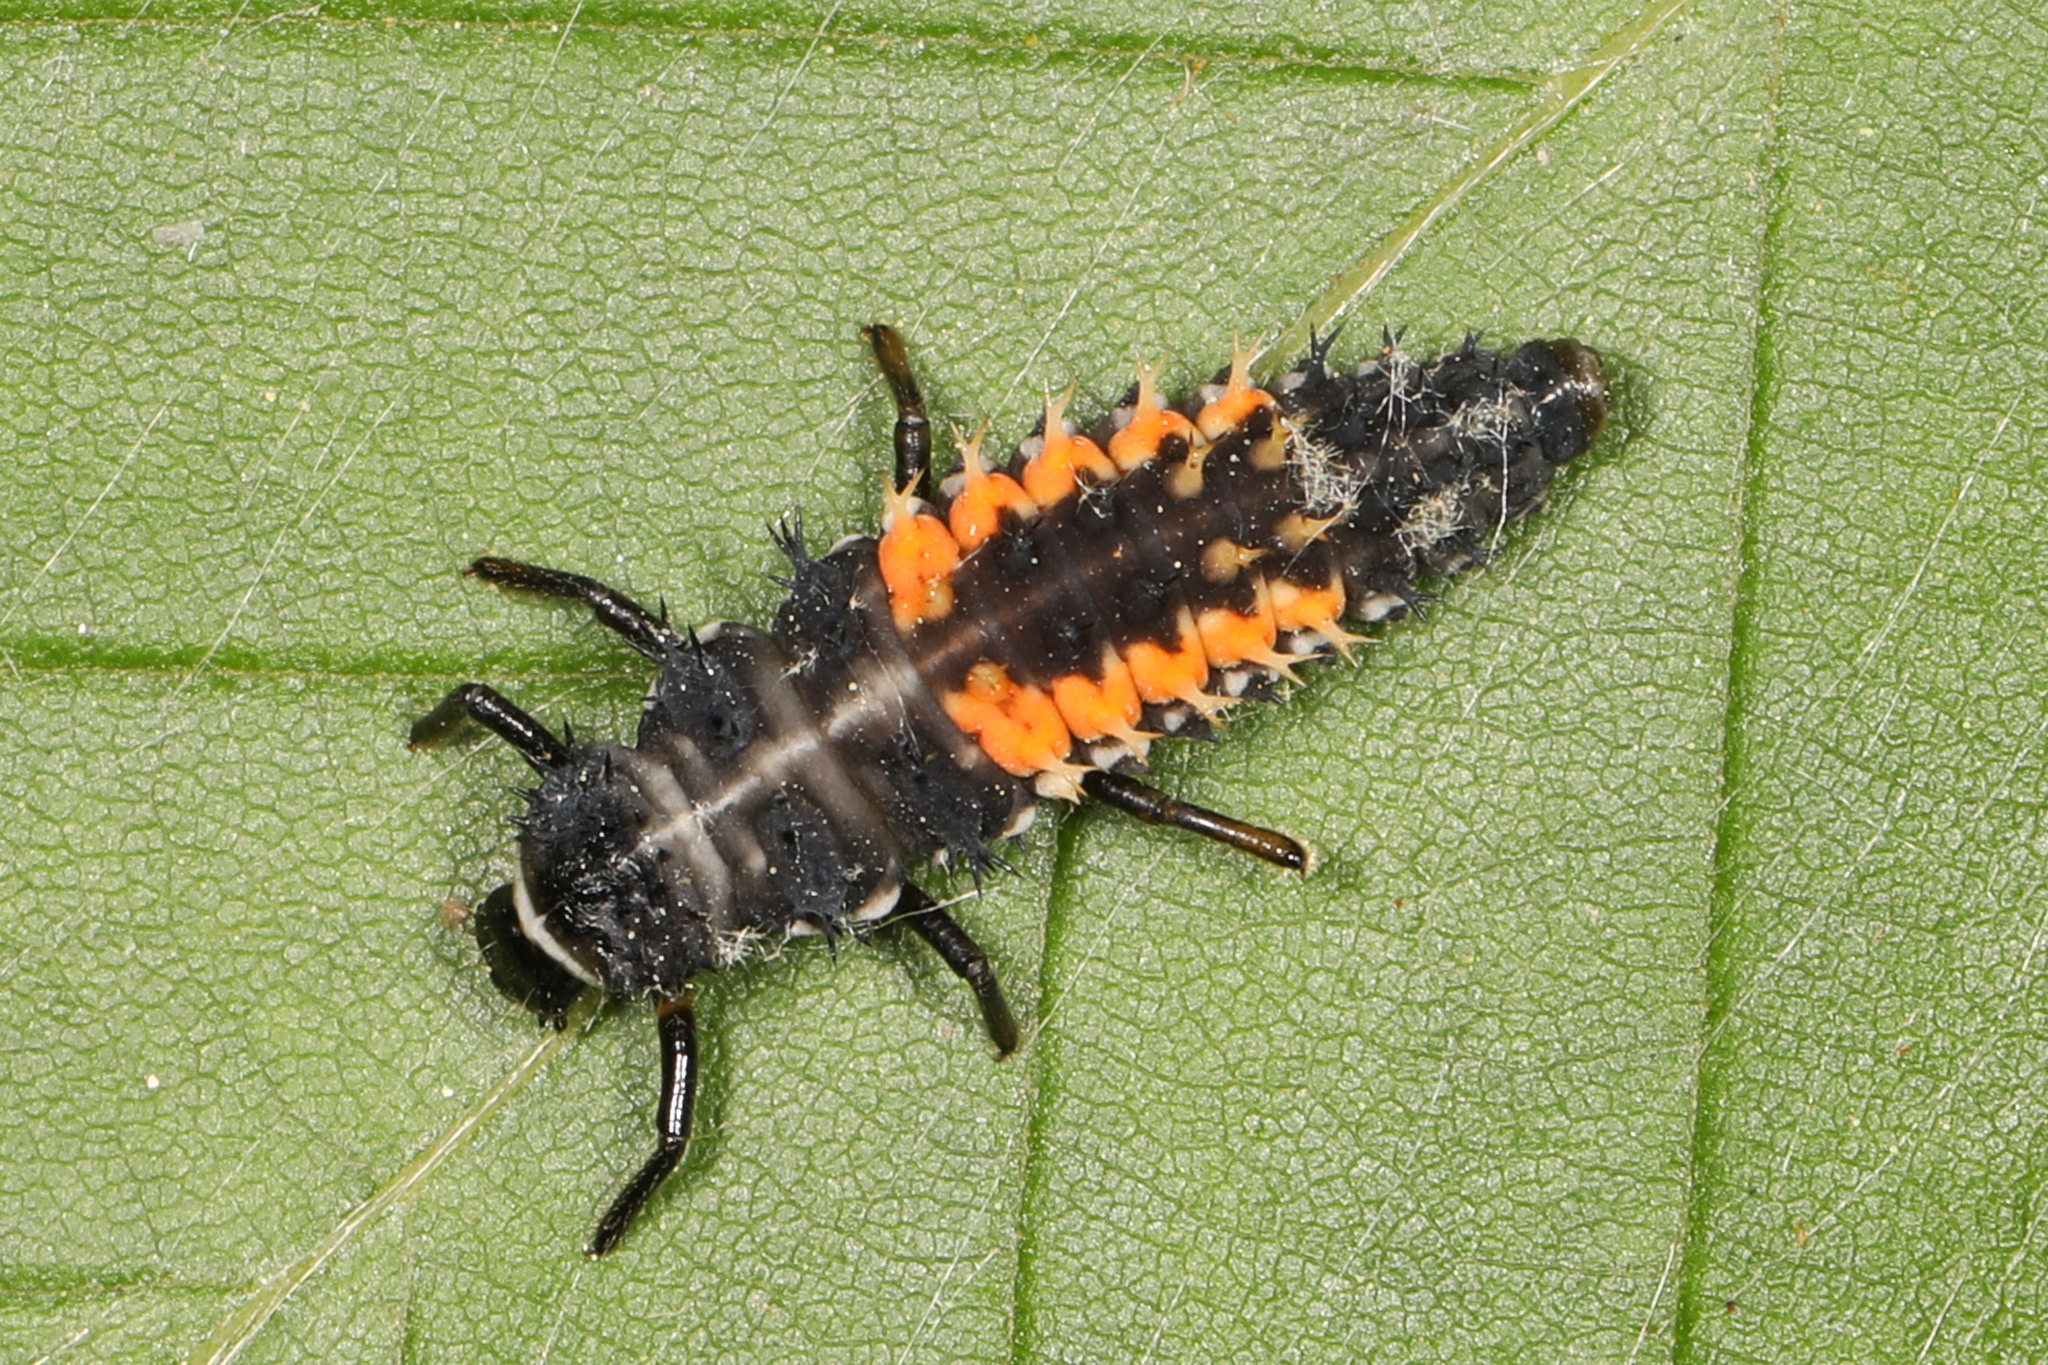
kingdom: Animalia
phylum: Arthropoda
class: Insecta
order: Coleoptera
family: Coccinellidae
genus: Harmonia
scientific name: Harmonia axyridis
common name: Harlequin ladybird
